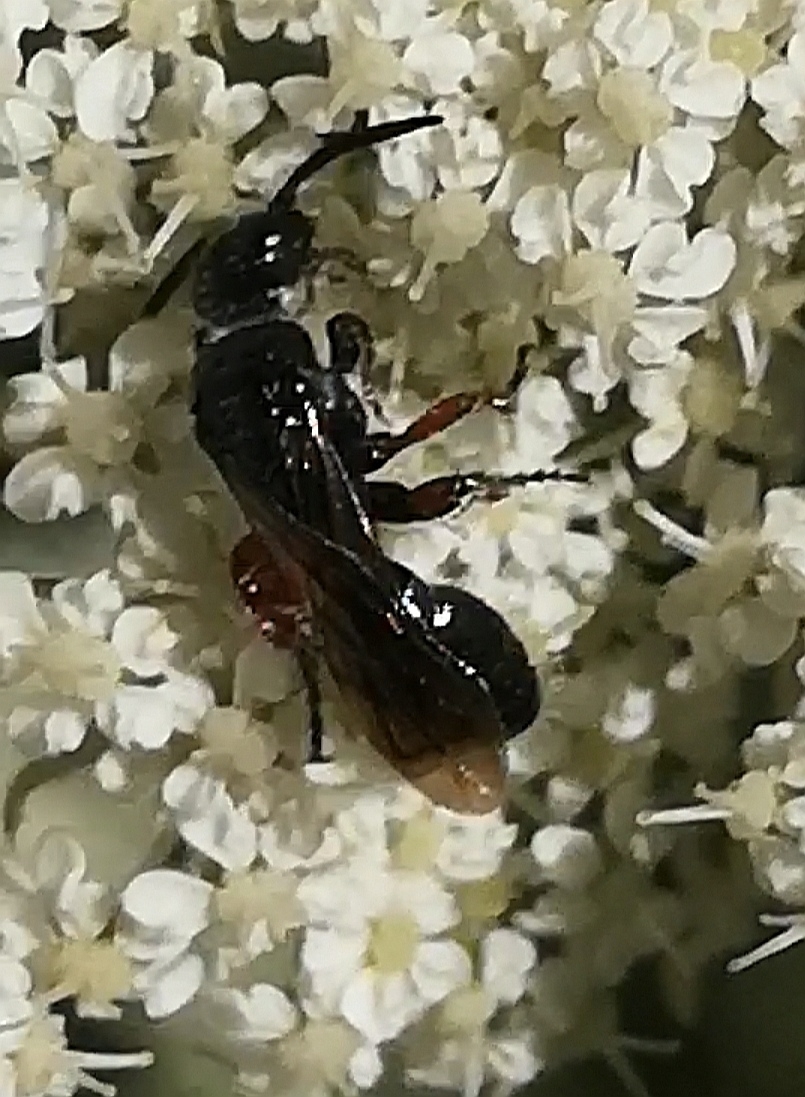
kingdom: Animalia
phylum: Arthropoda
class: Insecta
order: Hymenoptera
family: Tiphiidae
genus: Tiphia
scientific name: Tiphia femorata
